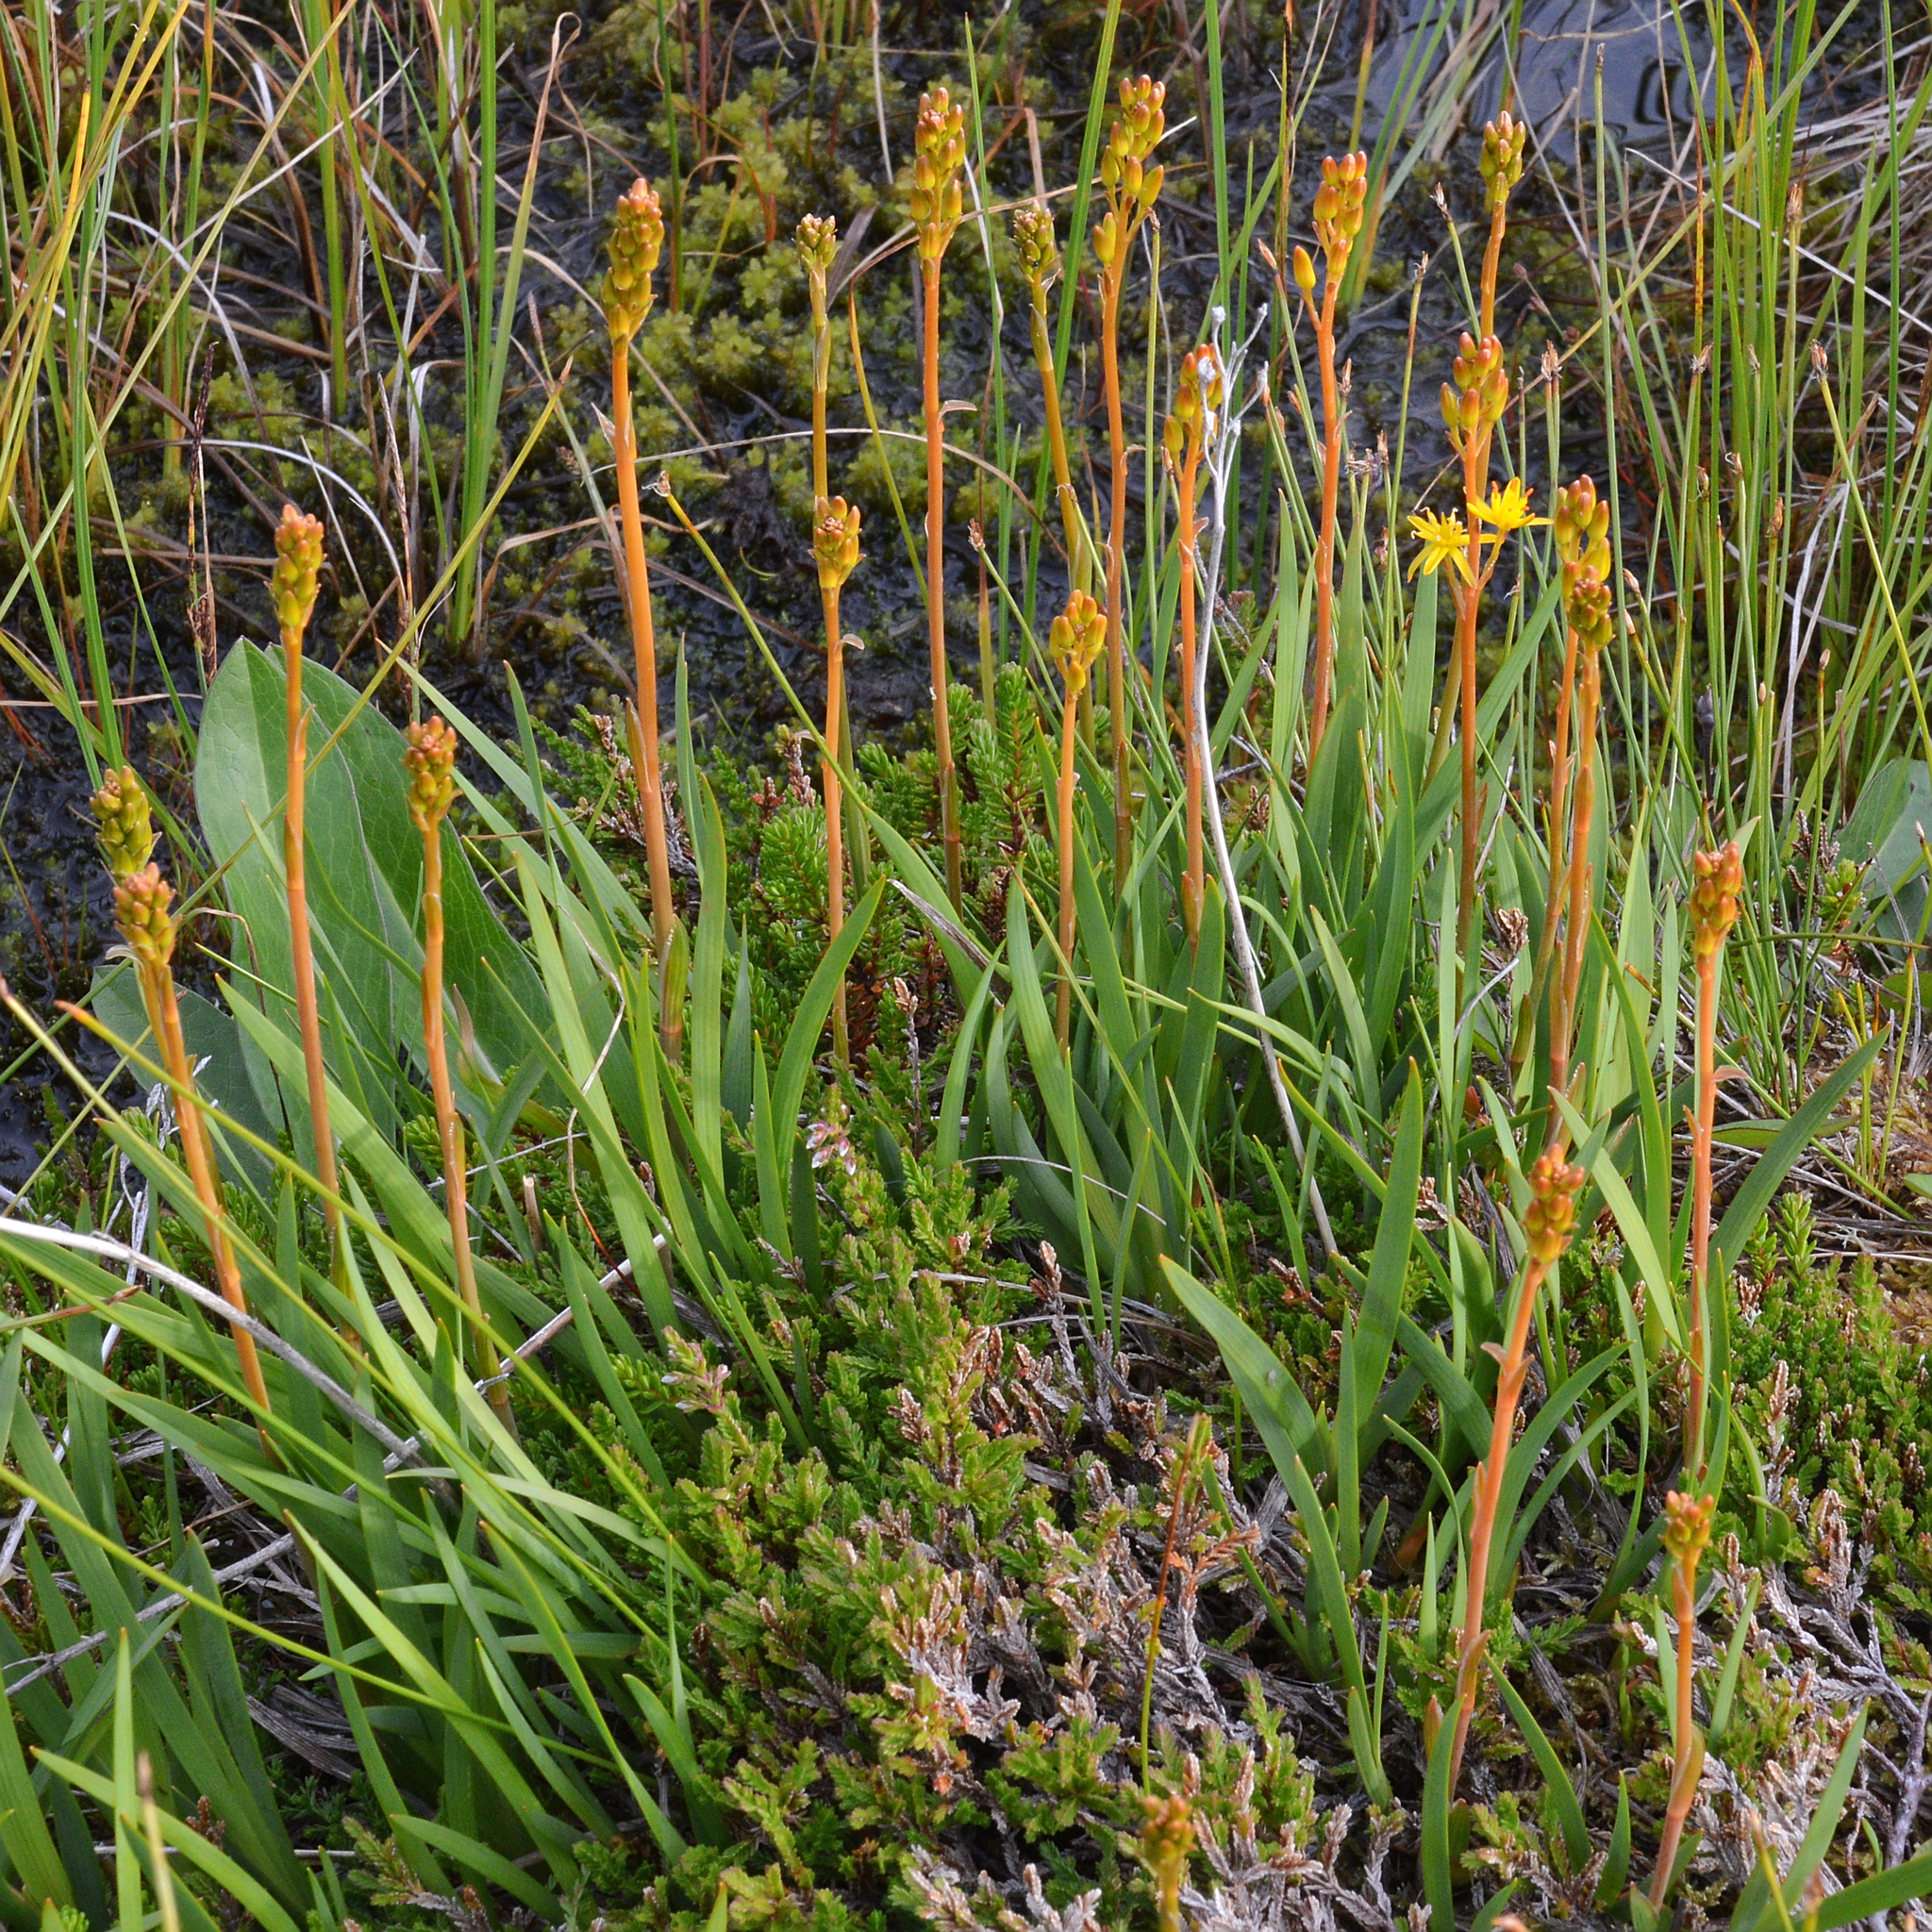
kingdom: Plantae
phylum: Tracheophyta
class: Liliopsida
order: Dioscoreales
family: Nartheciaceae
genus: Narthecium
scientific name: Narthecium ossifragum
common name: Bog asphodel
